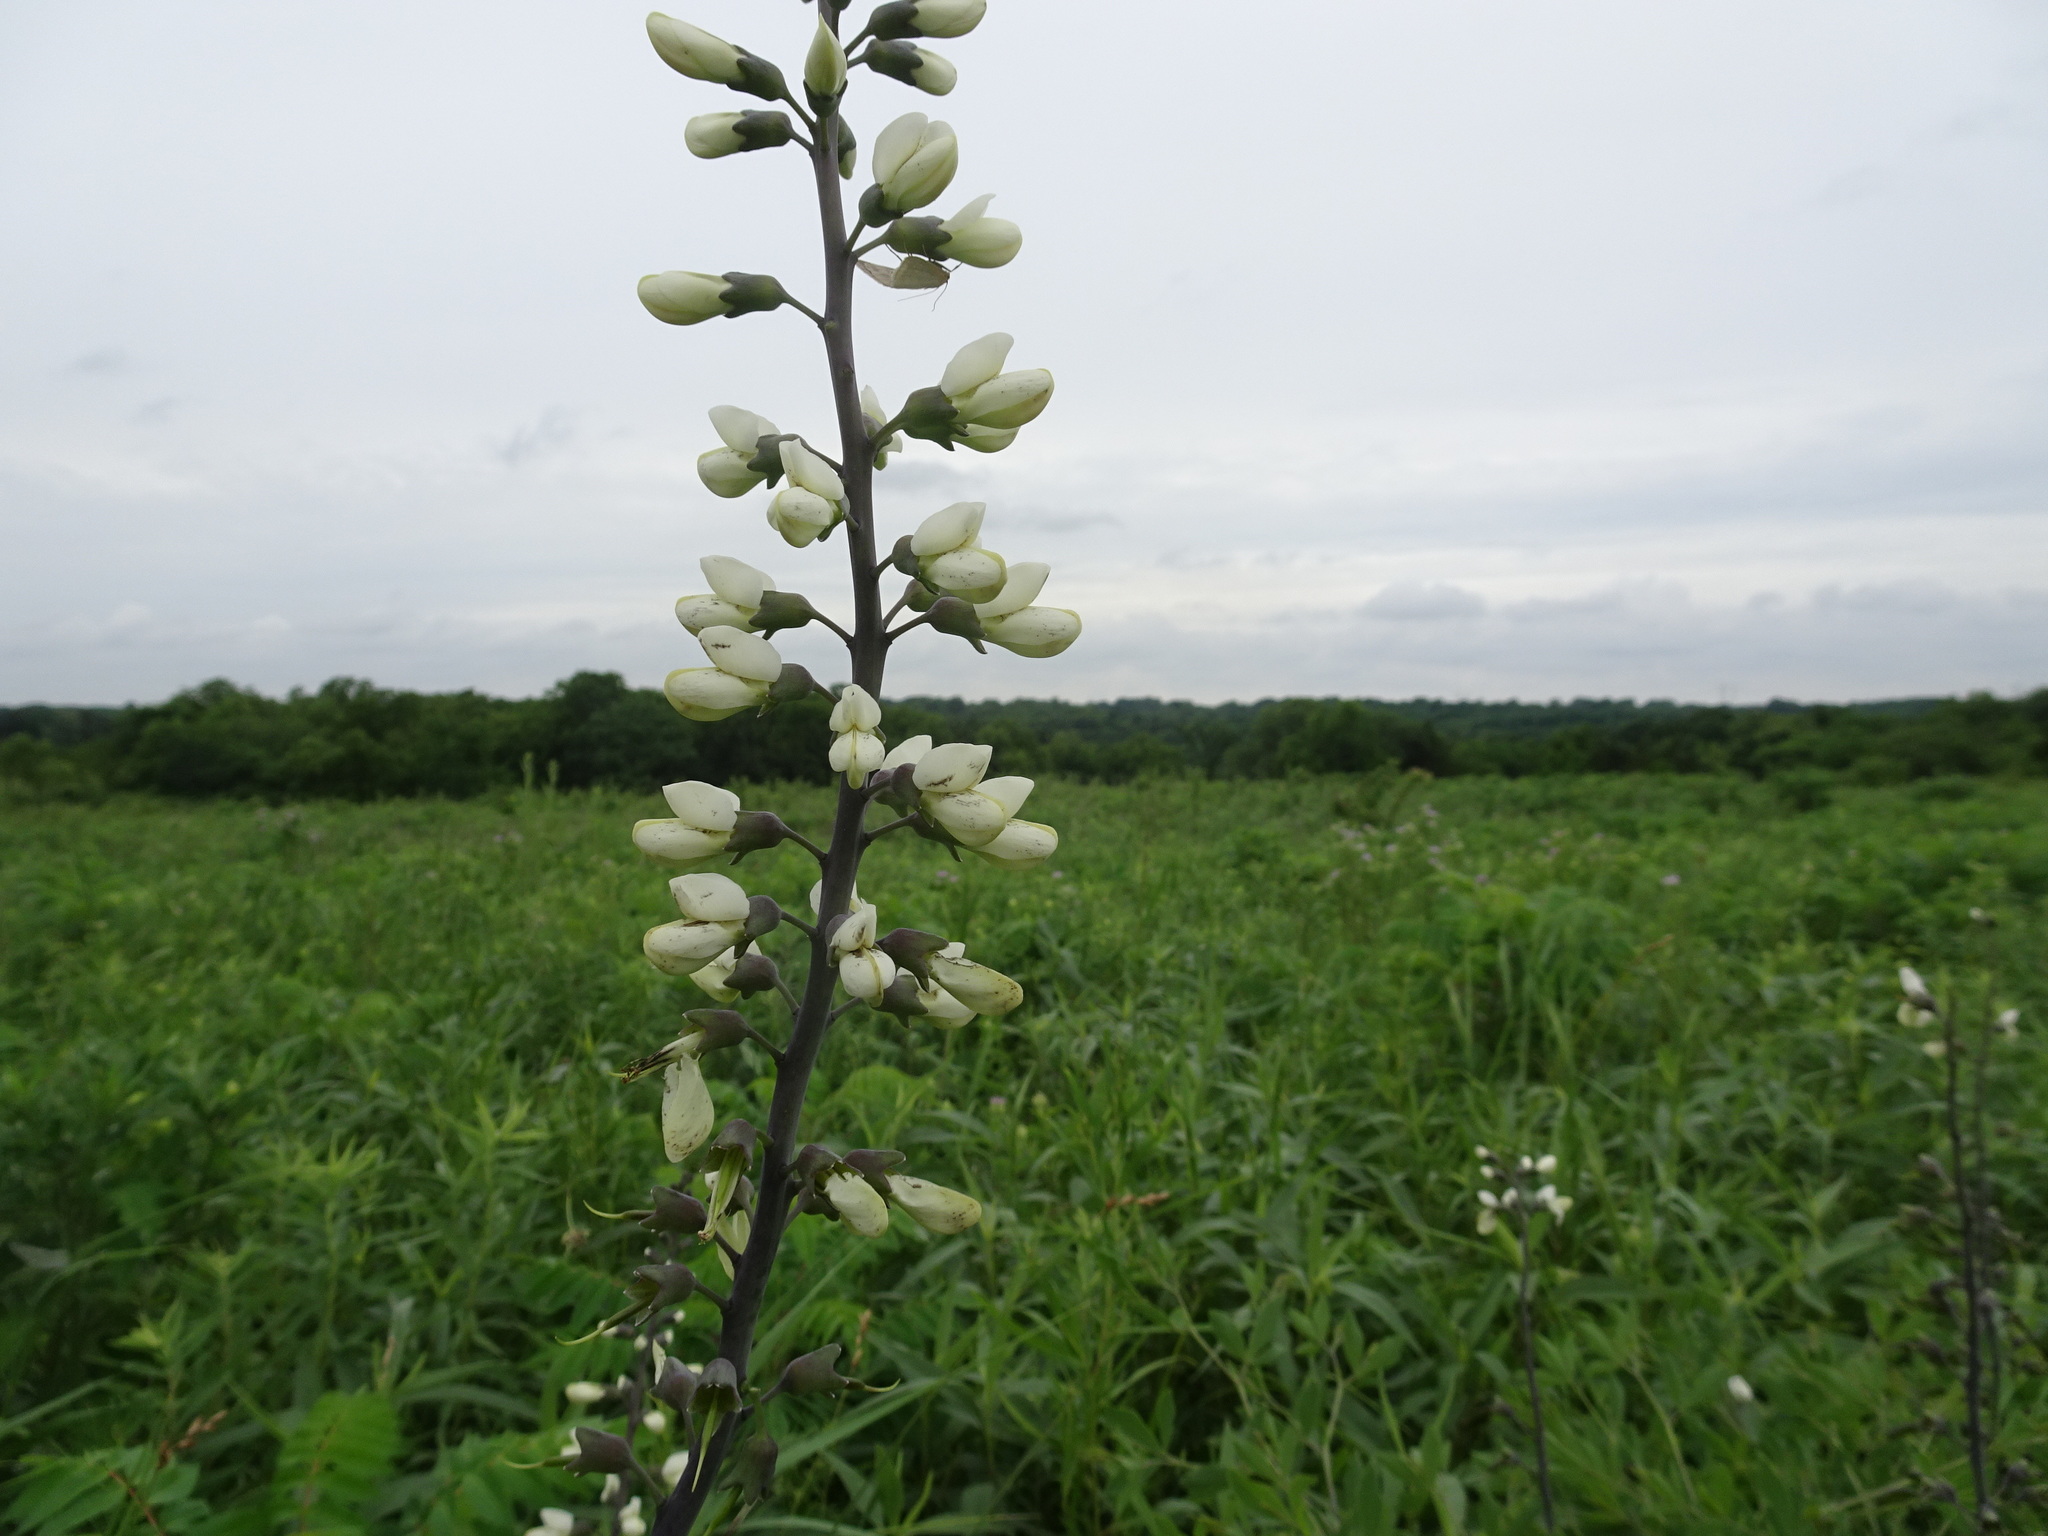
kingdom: Plantae
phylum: Tracheophyta
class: Magnoliopsida
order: Fabales
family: Fabaceae
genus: Baptisia
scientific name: Baptisia alba
